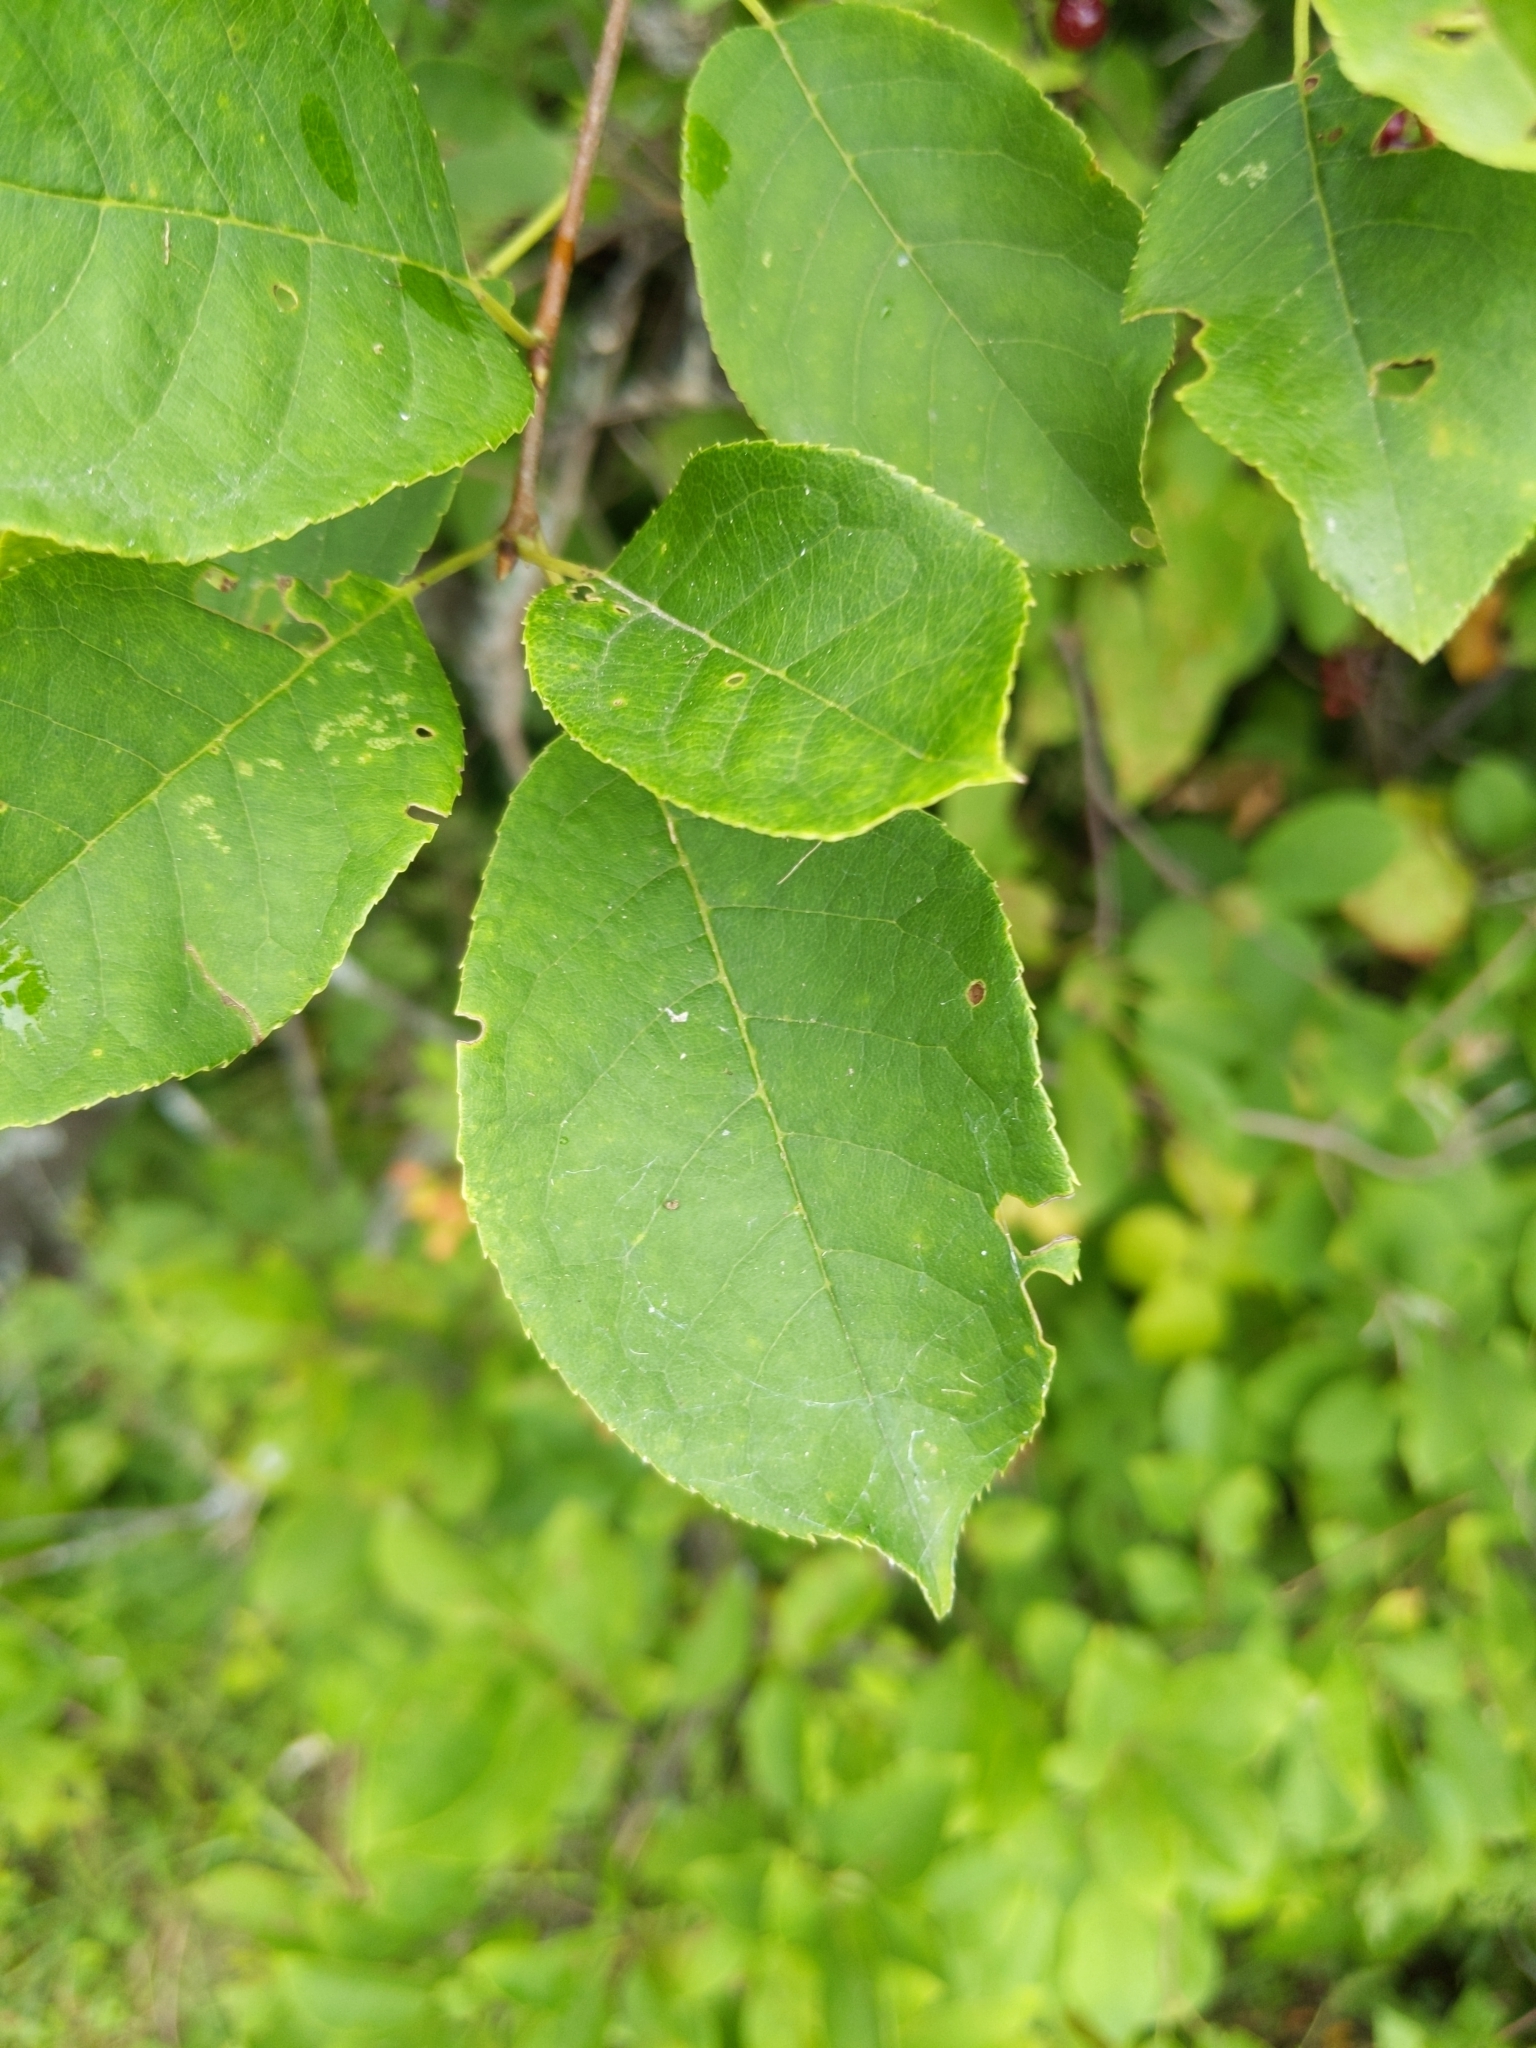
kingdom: Plantae
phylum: Tracheophyta
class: Magnoliopsida
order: Rosales
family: Rosaceae
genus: Prunus
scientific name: Prunus virginiana
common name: Chokecherry
